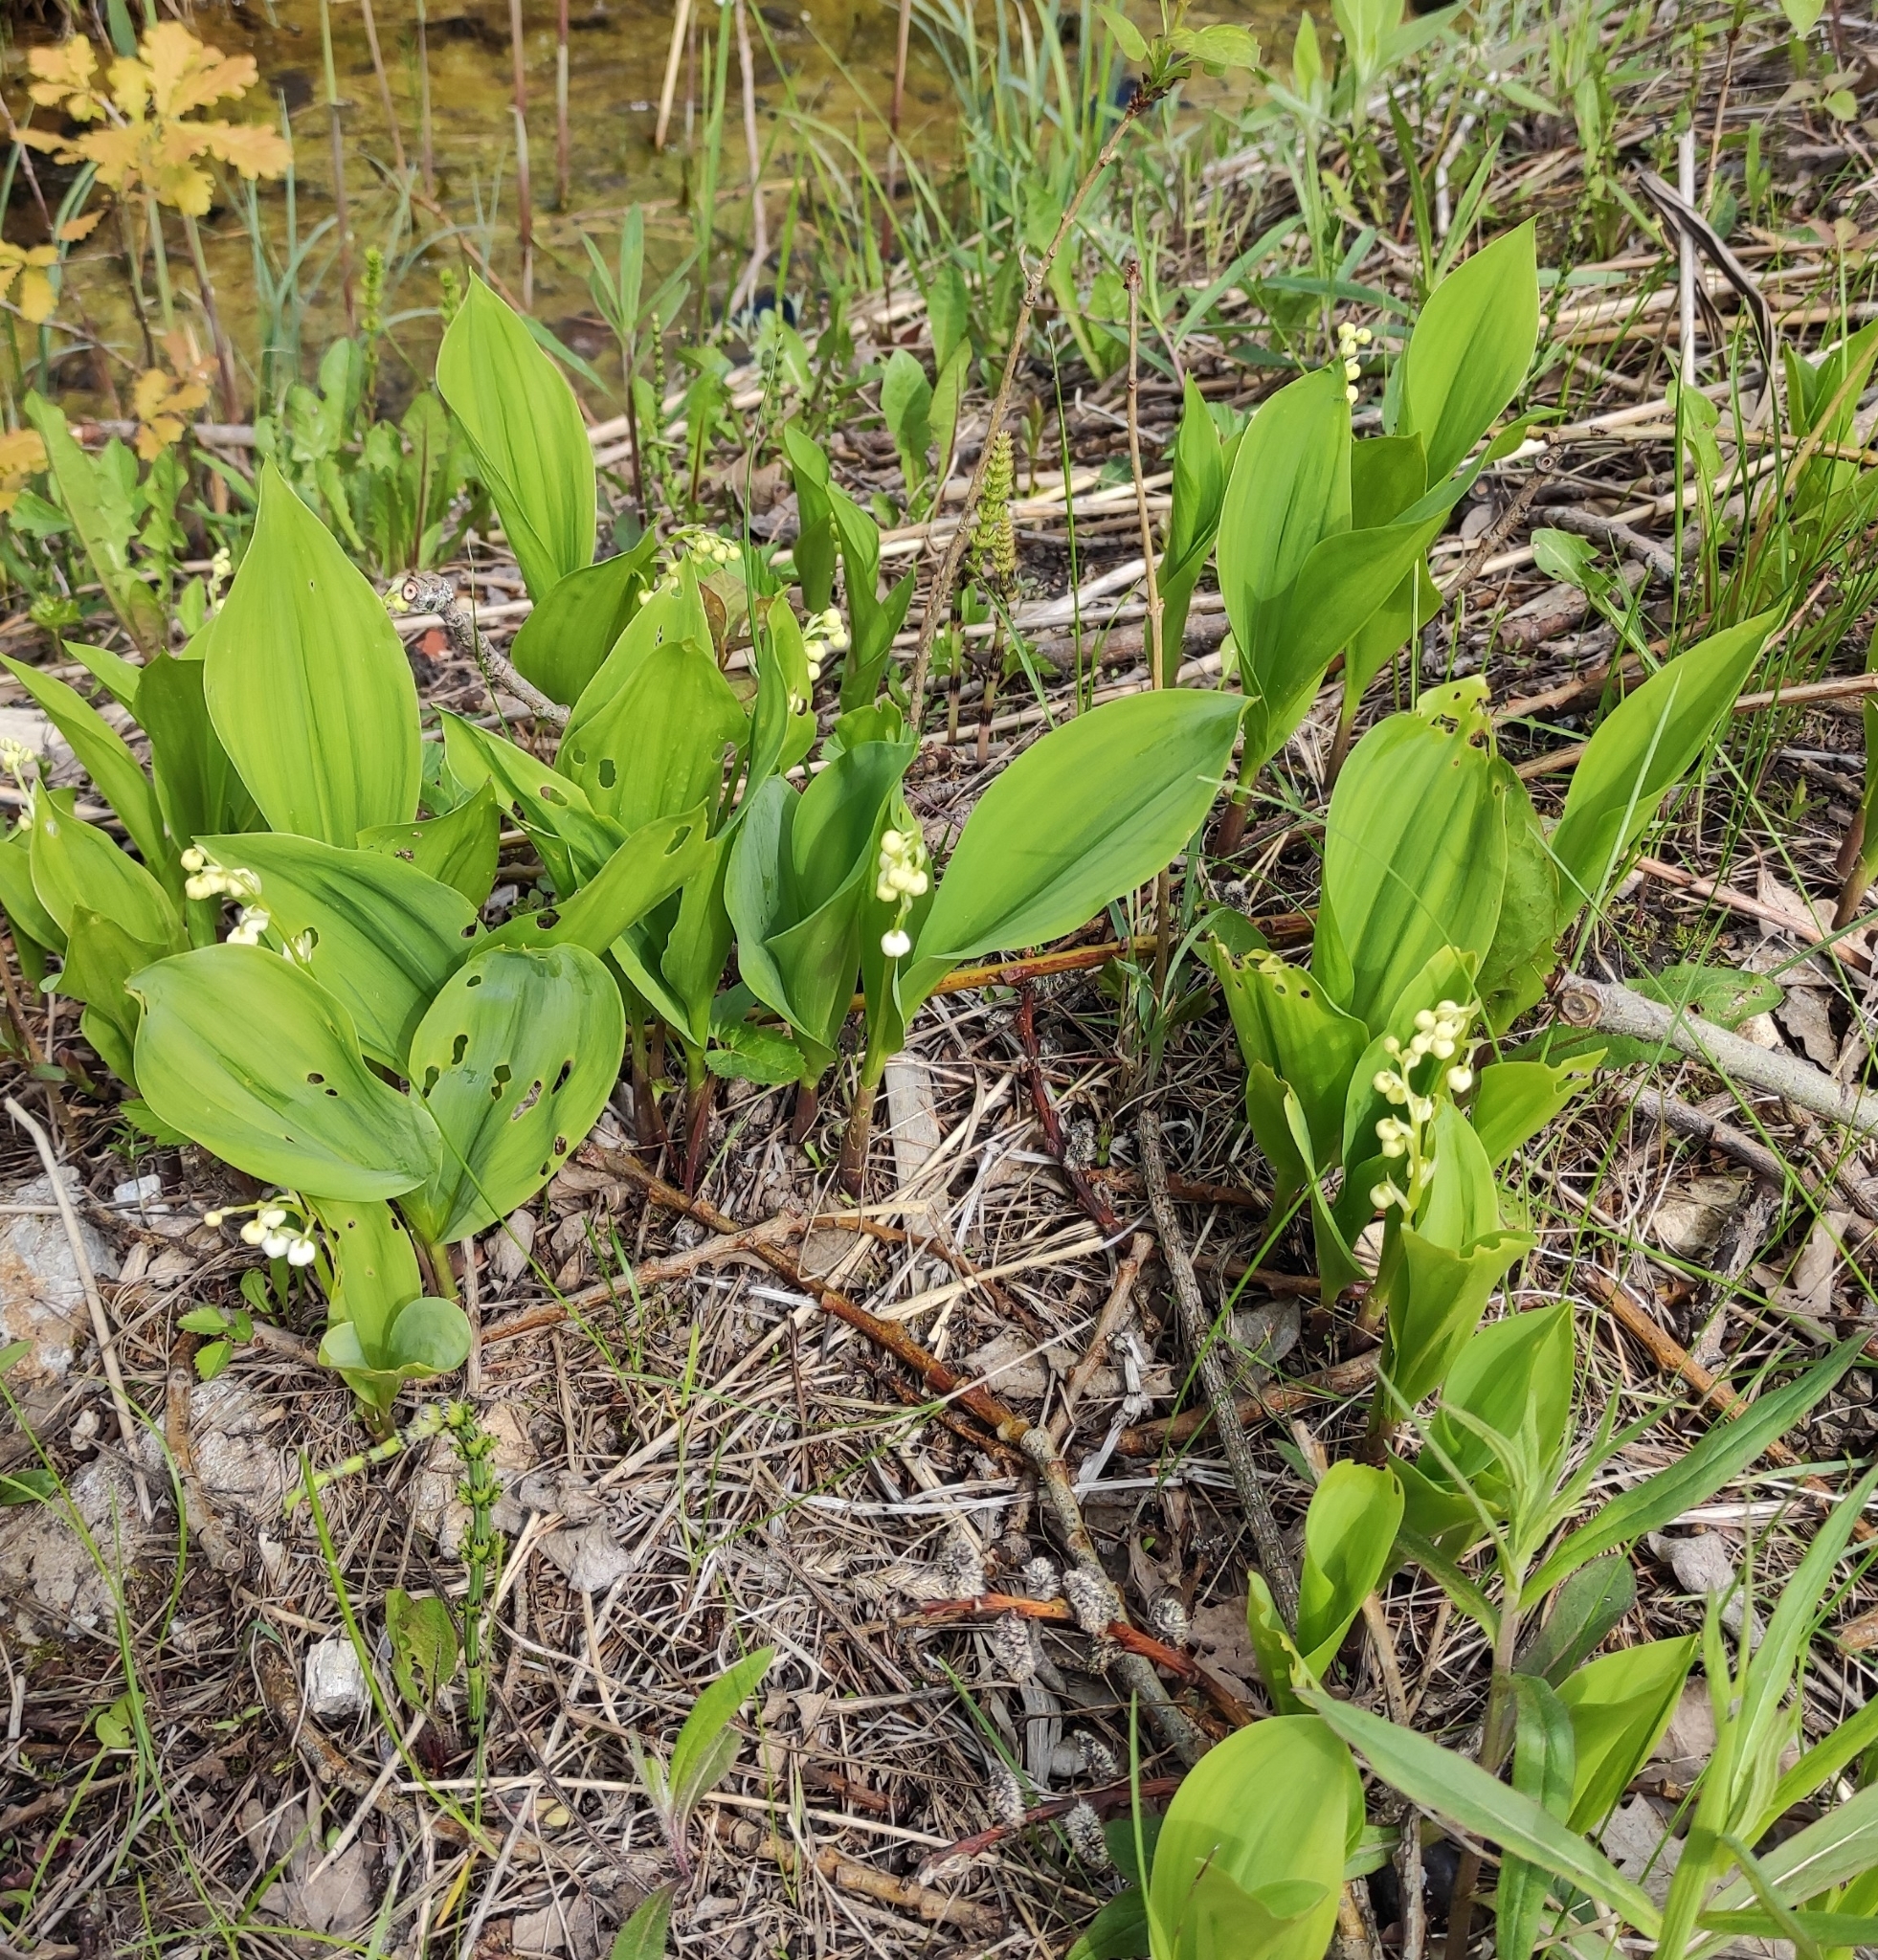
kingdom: Plantae
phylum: Tracheophyta
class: Liliopsida
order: Asparagales
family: Asparagaceae
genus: Convallaria
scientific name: Convallaria majalis
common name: Lily-of-the-valley
